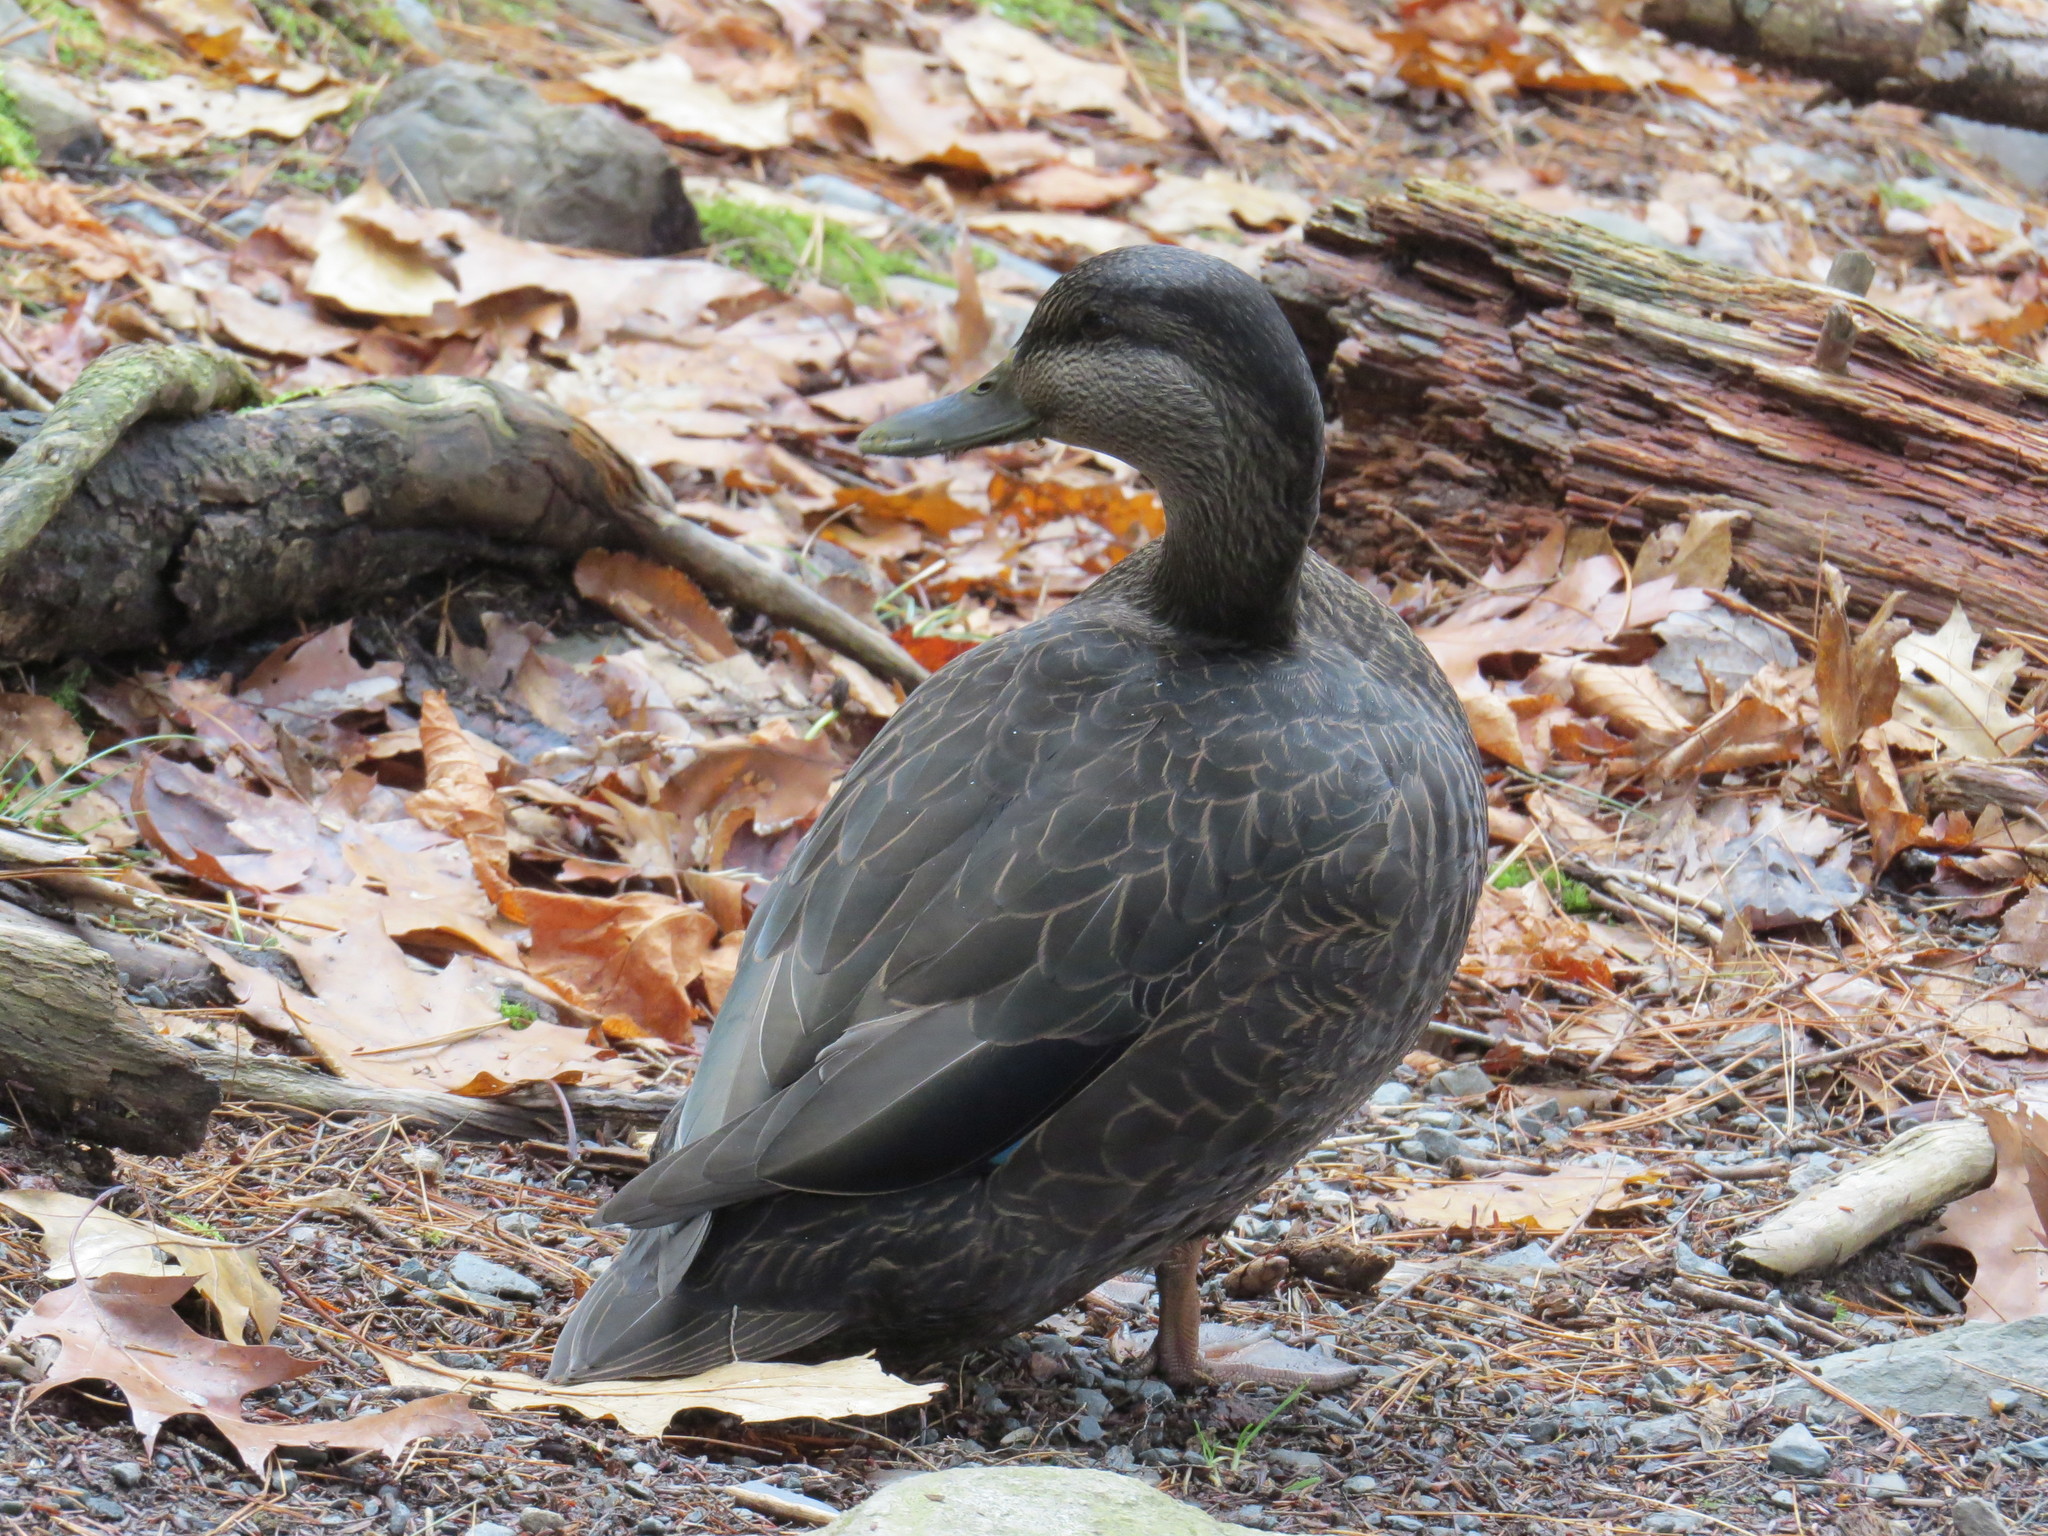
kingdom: Animalia
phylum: Chordata
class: Aves
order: Anseriformes
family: Anatidae
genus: Anas
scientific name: Anas rubripes
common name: American black duck
